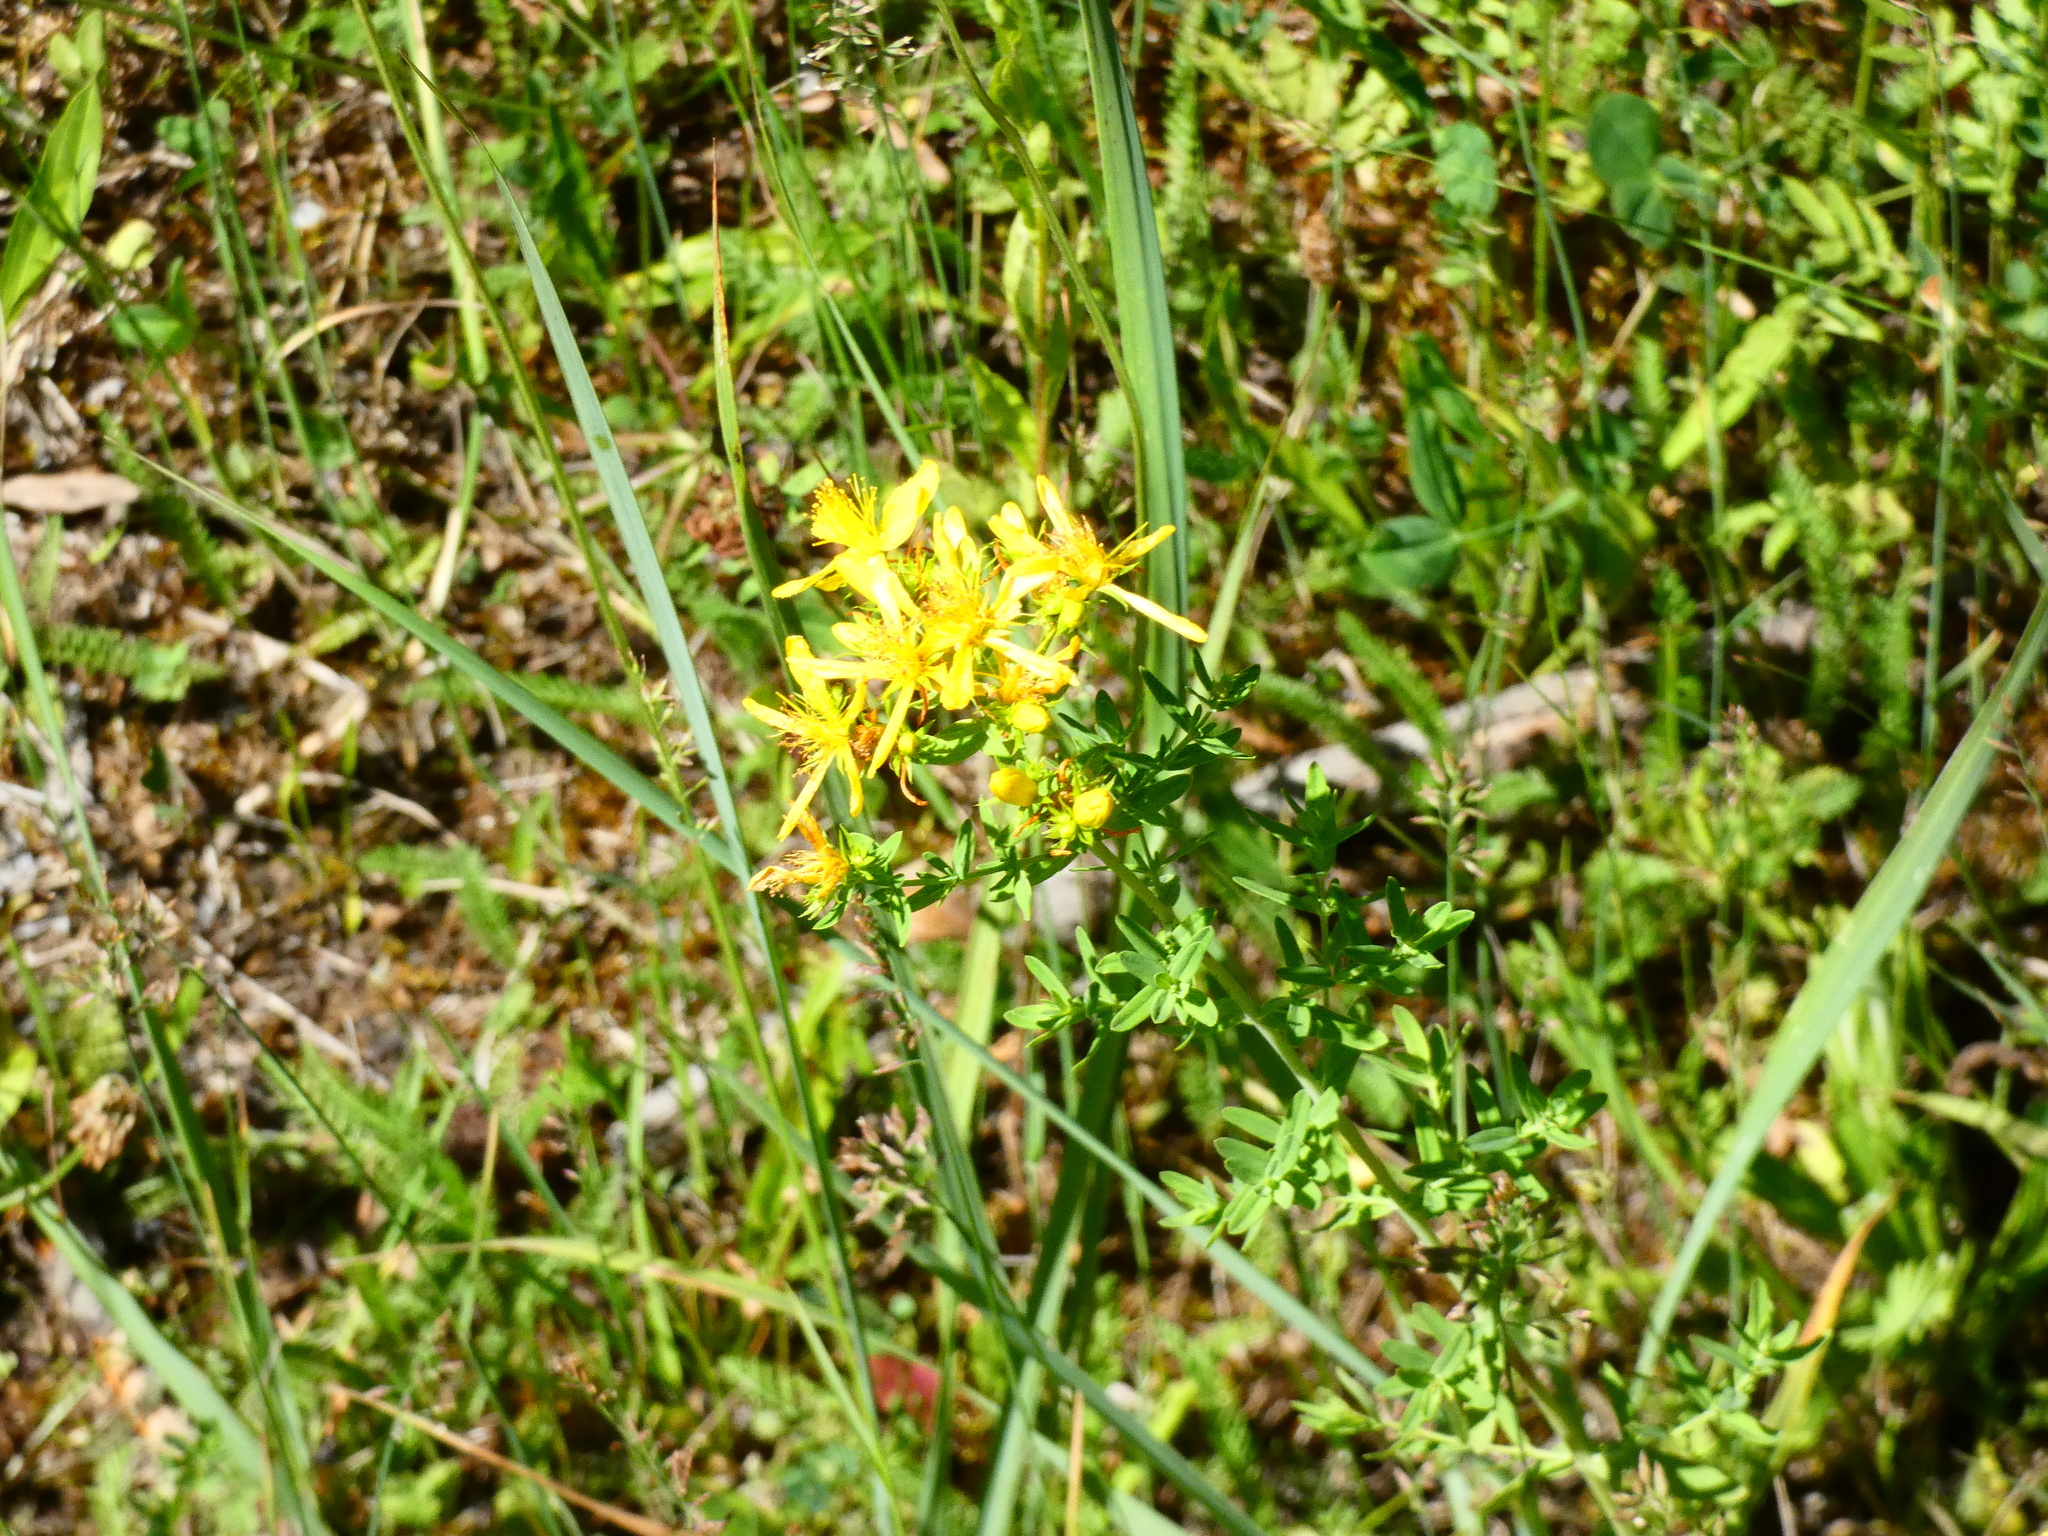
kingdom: Plantae
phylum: Tracheophyta
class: Magnoliopsida
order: Malpighiales
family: Hypericaceae
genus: Hypericum
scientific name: Hypericum perforatum
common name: Common st. johnswort
